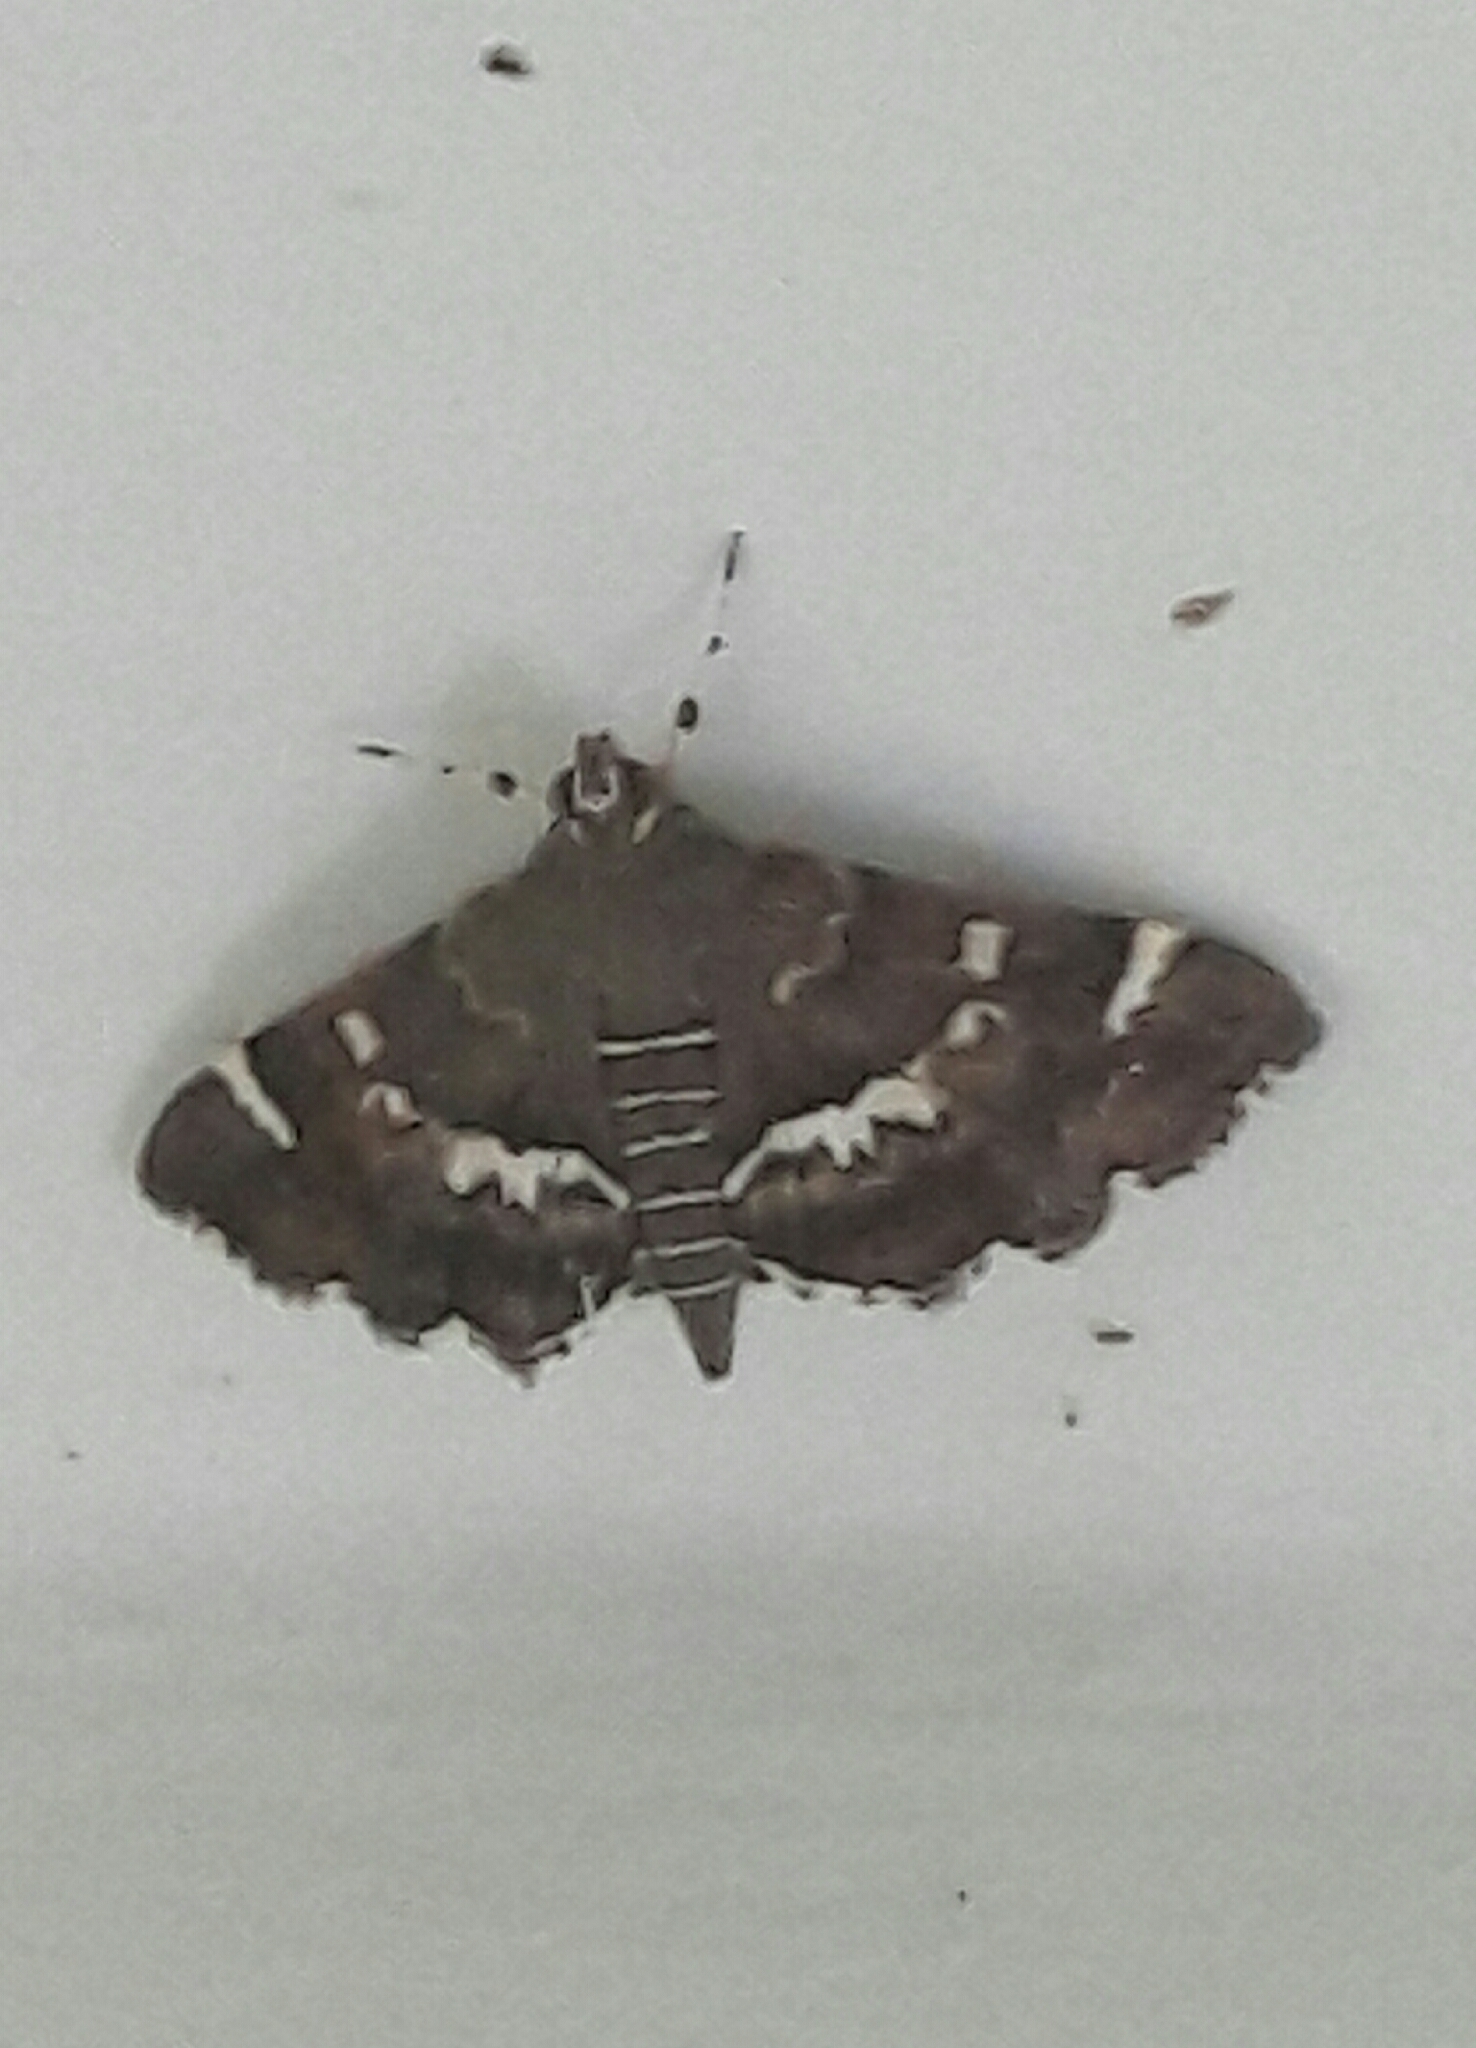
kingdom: Animalia
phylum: Arthropoda
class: Insecta
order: Lepidoptera
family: Crambidae
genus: Hymenia
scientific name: Hymenia perspectalis
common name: Spotted beet webworm
